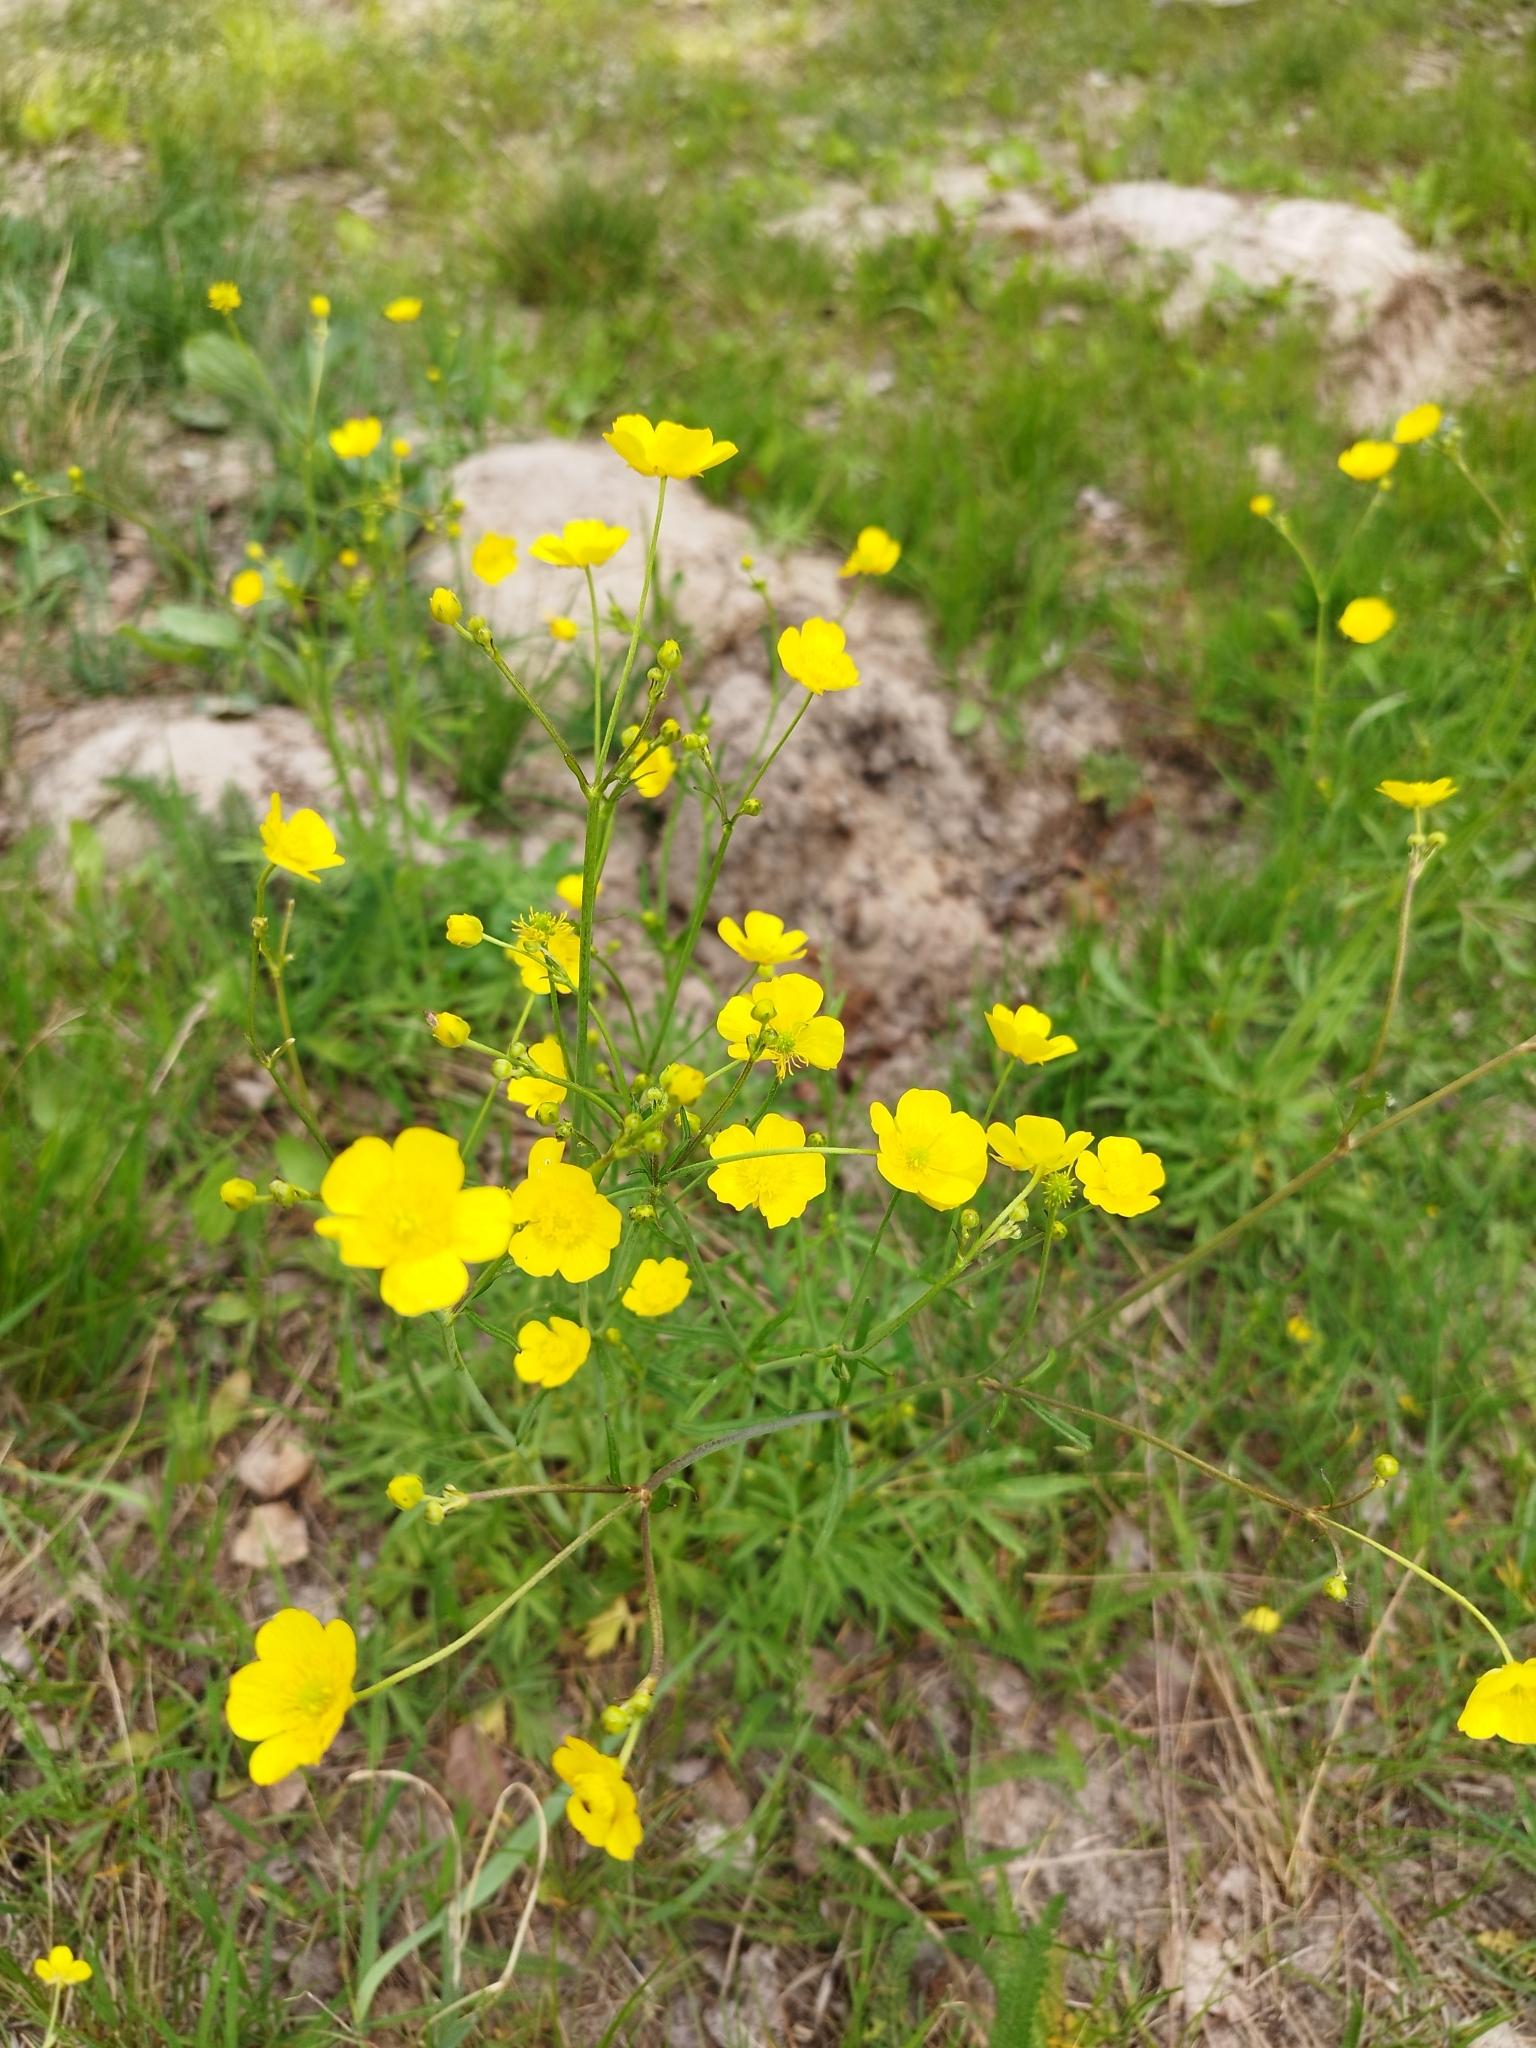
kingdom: Plantae
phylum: Tracheophyta
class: Magnoliopsida
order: Ranunculales
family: Ranunculaceae
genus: Ranunculus
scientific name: Ranunculus acris
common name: Meadow buttercup
